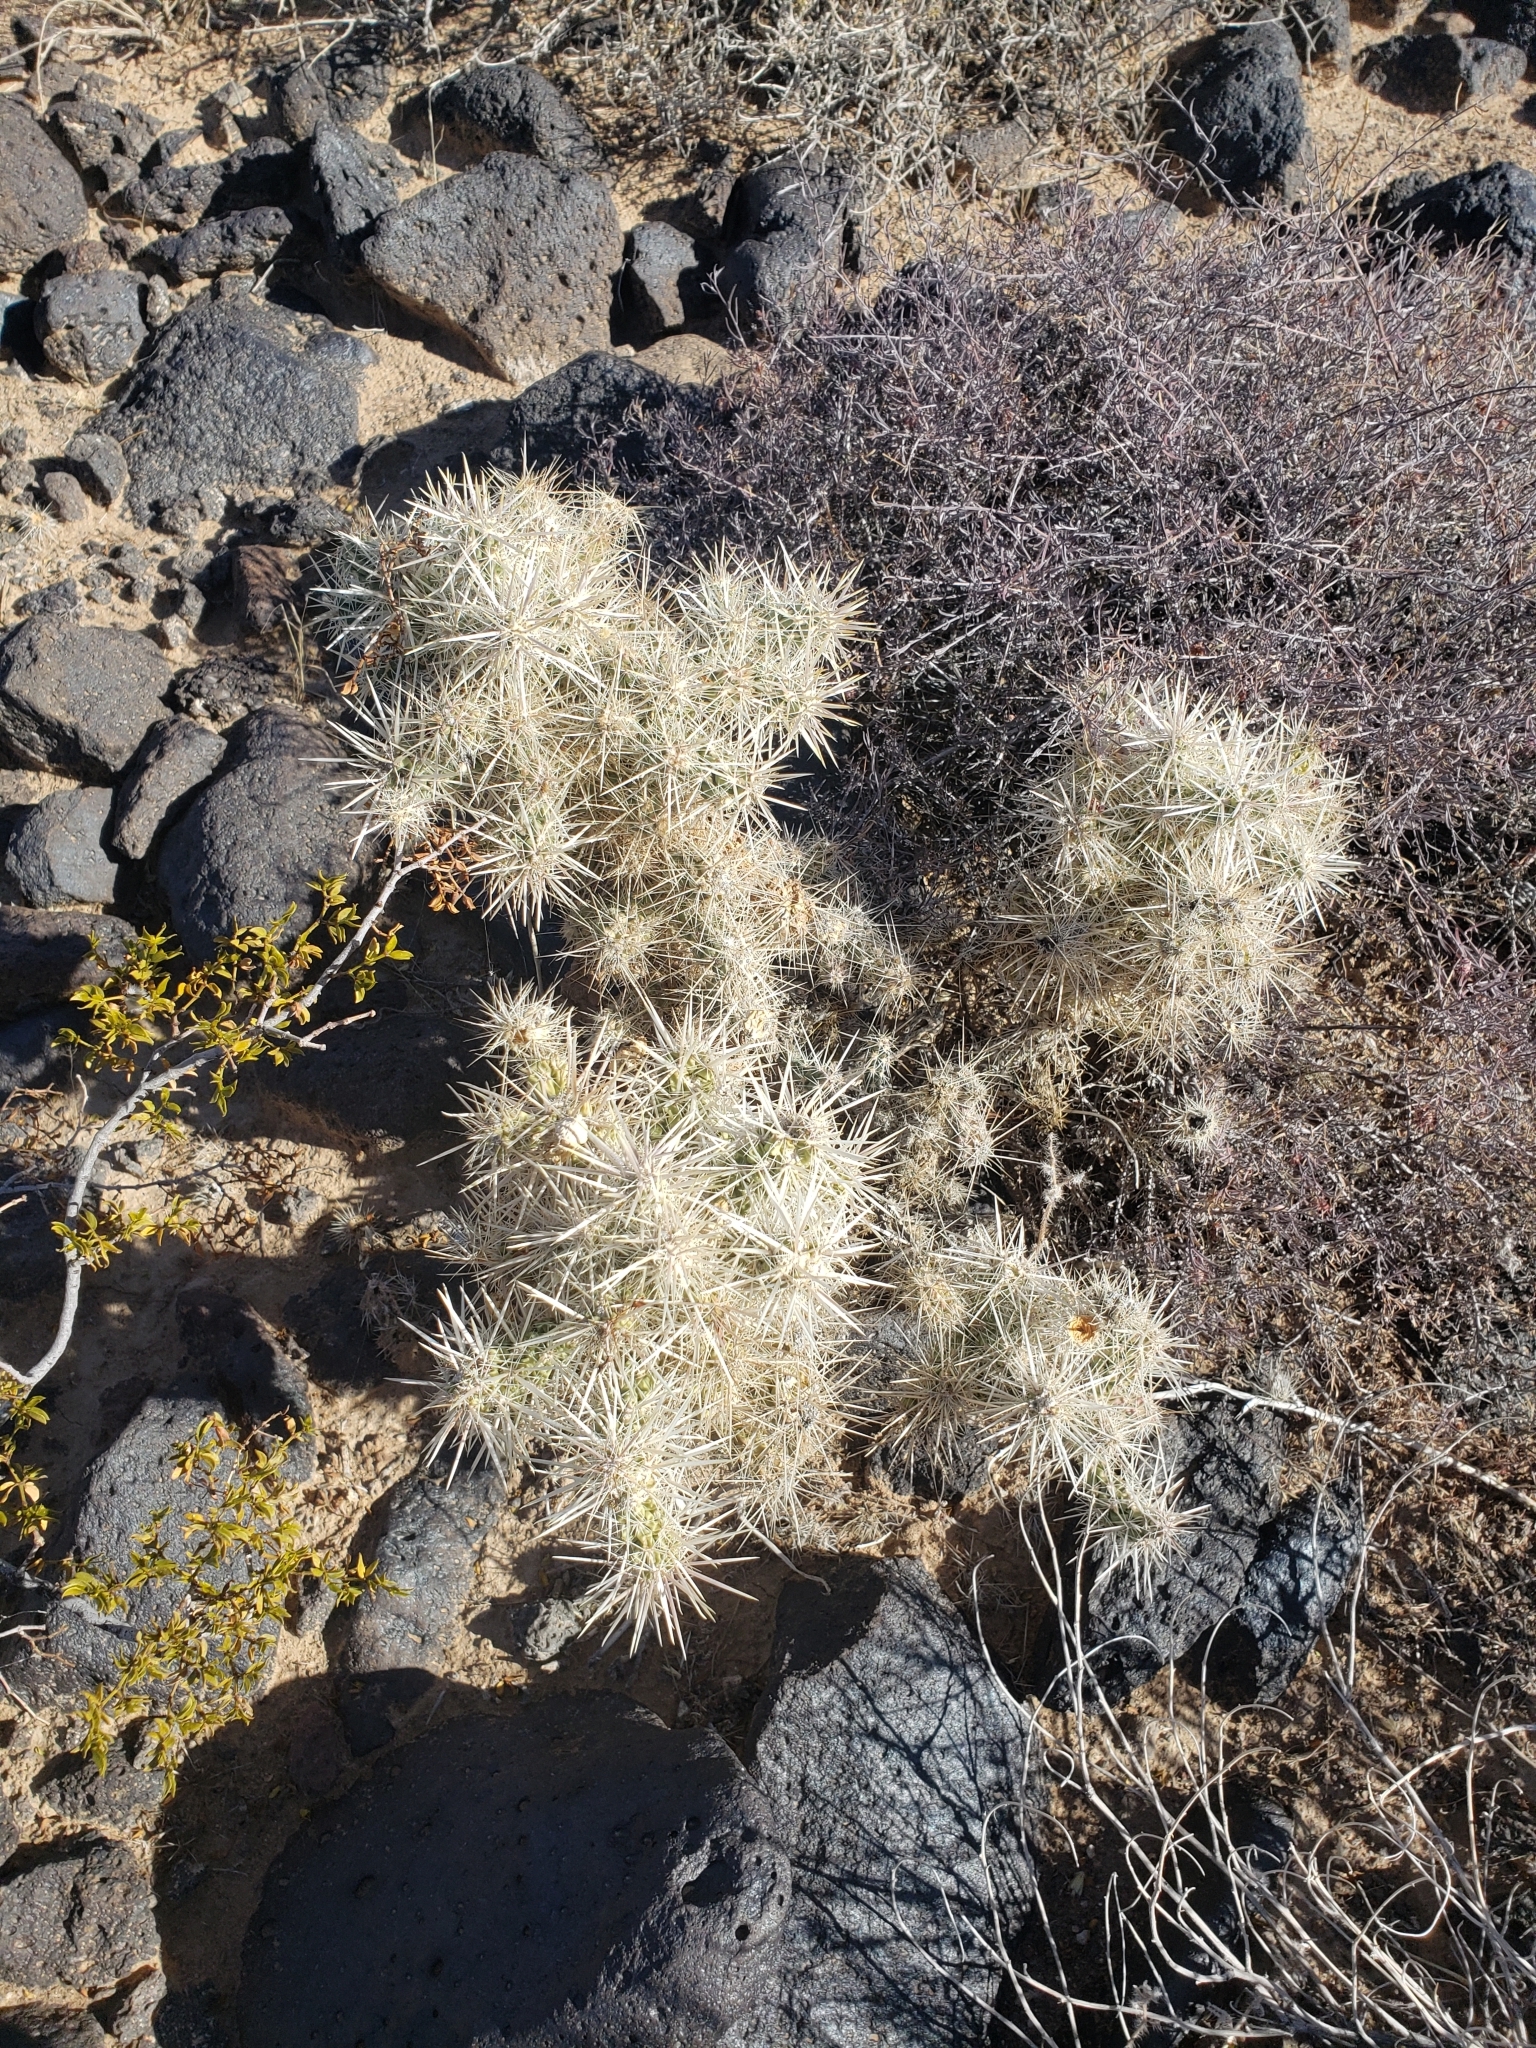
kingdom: Plantae
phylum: Tracheophyta
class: Magnoliopsida
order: Caryophyllales
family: Cactaceae
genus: Cylindropuntia
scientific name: Cylindropuntia echinocarpa
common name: Ground cholla
